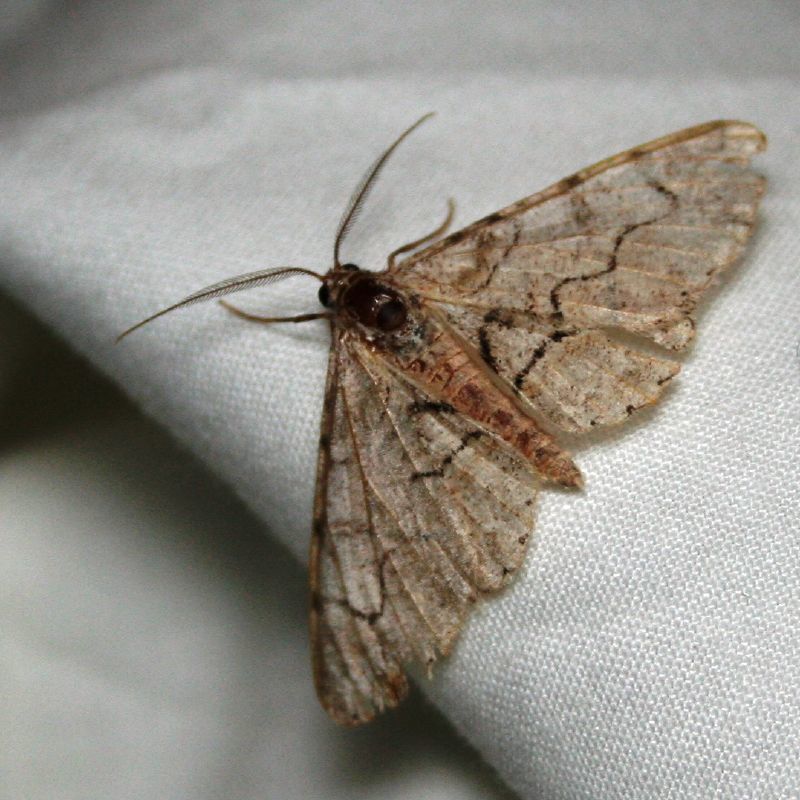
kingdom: Animalia
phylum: Arthropoda
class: Insecta
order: Lepidoptera
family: Geometridae
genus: Iridopsis
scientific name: Iridopsis larvaria
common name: Bent-line gray
